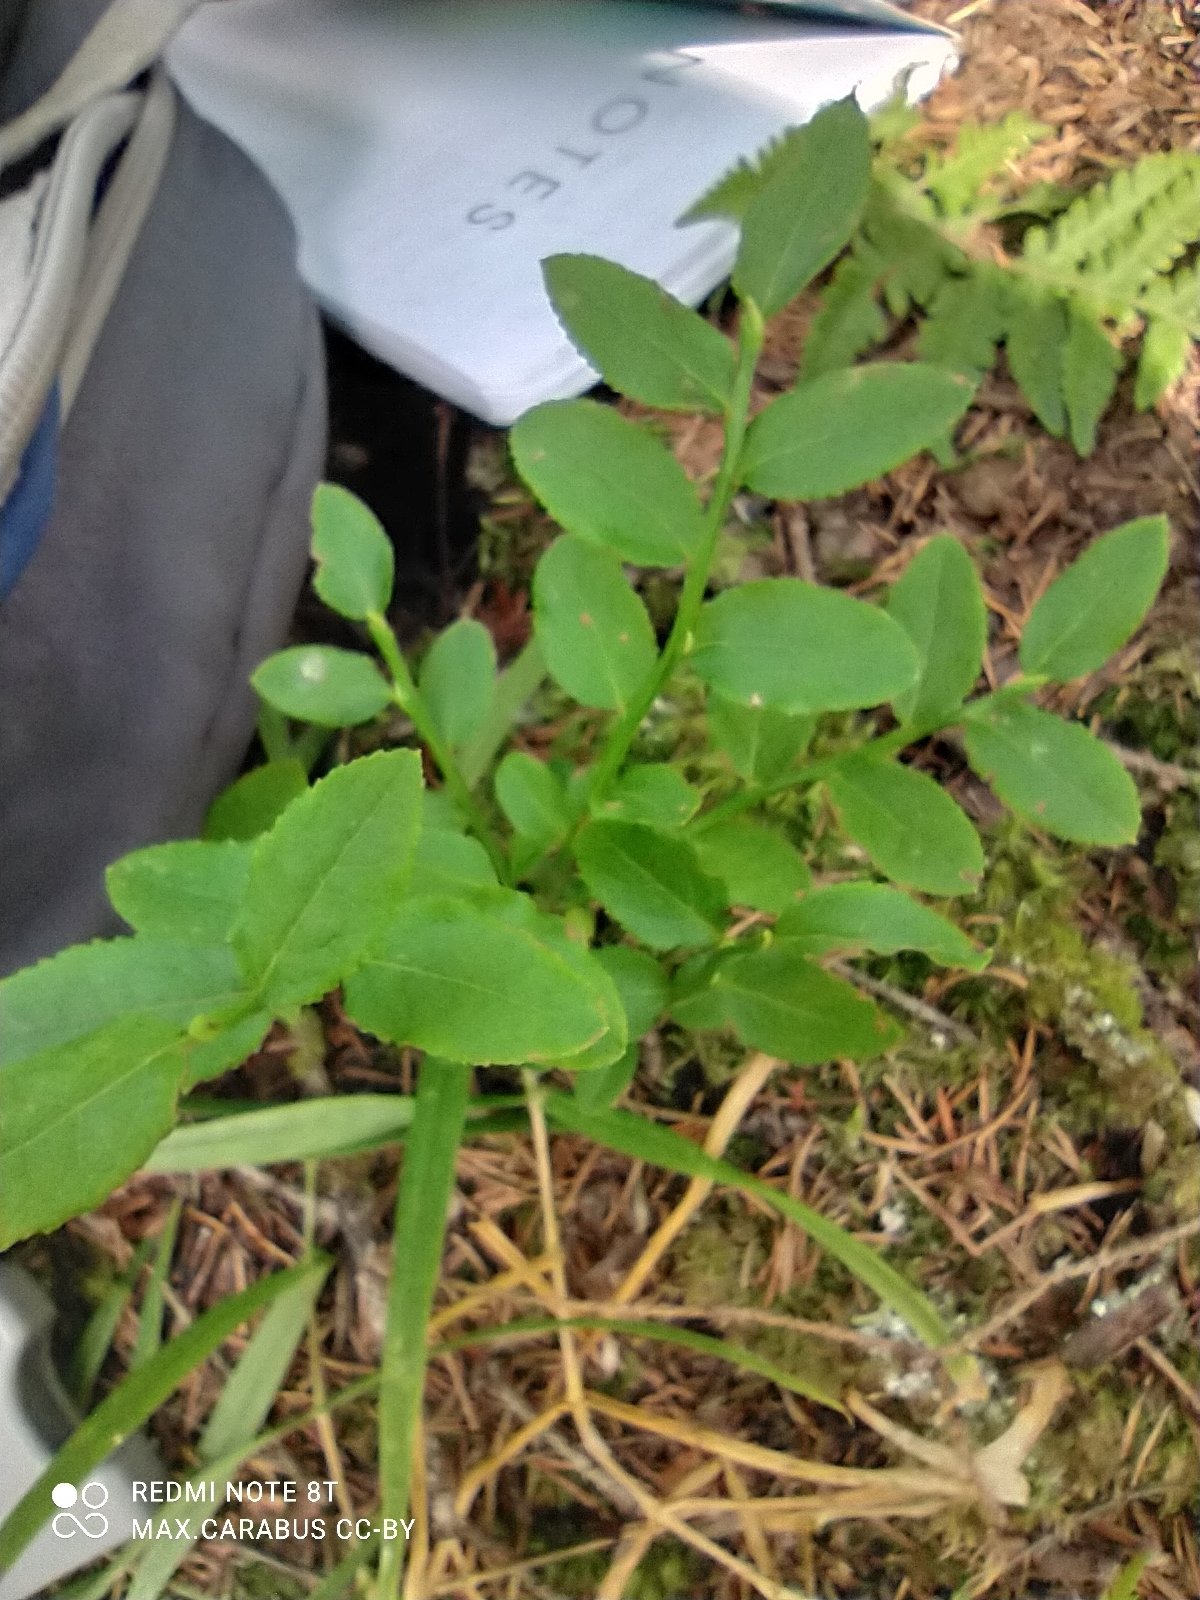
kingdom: Plantae
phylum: Tracheophyta
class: Magnoliopsida
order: Ericales
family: Ericaceae
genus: Vaccinium
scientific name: Vaccinium myrtillus
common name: Bilberry
